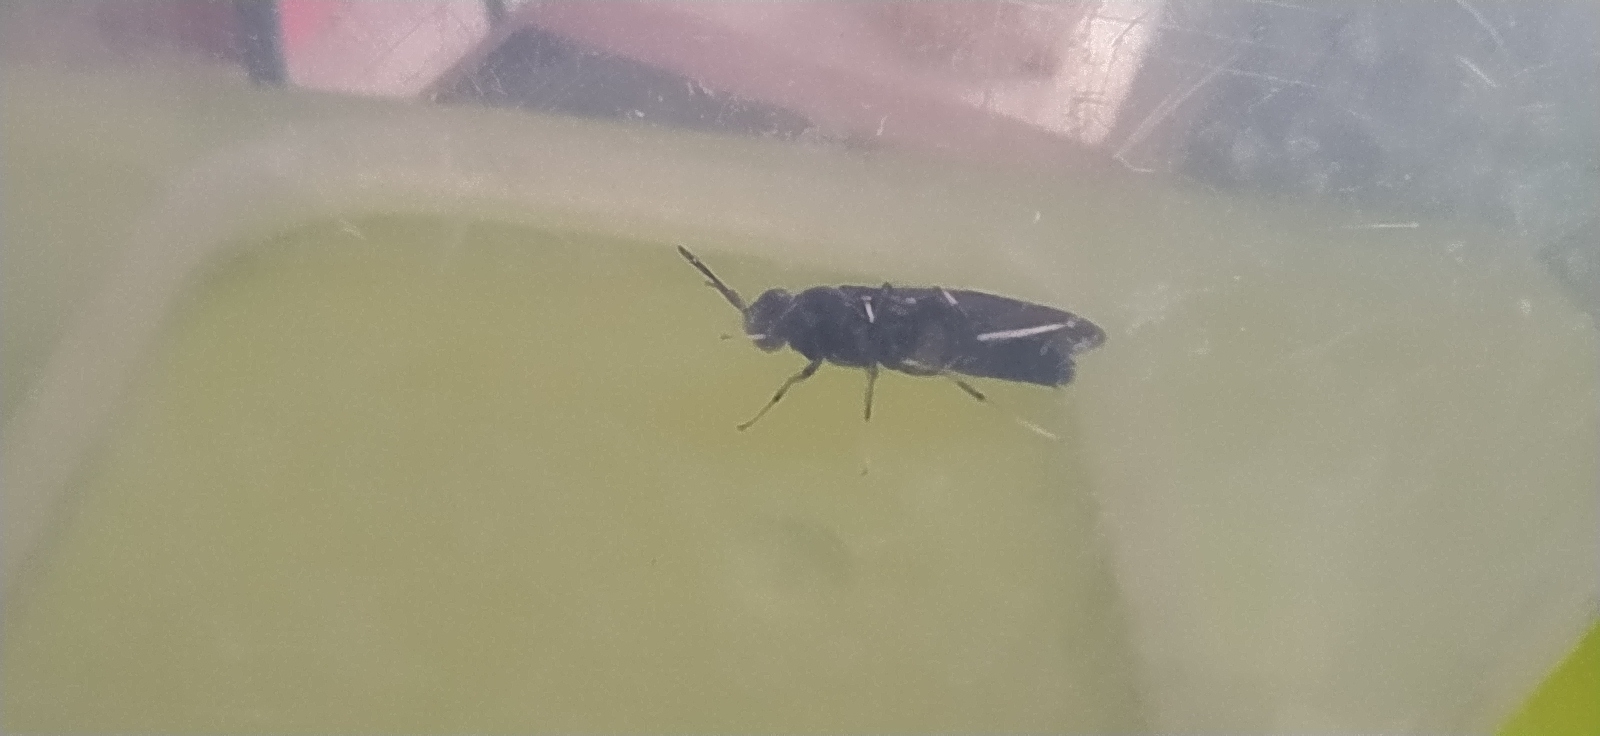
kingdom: Animalia
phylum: Arthropoda
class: Insecta
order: Diptera
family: Stratiomyidae
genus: Hermetia
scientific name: Hermetia illucens
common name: Black soldier fly
